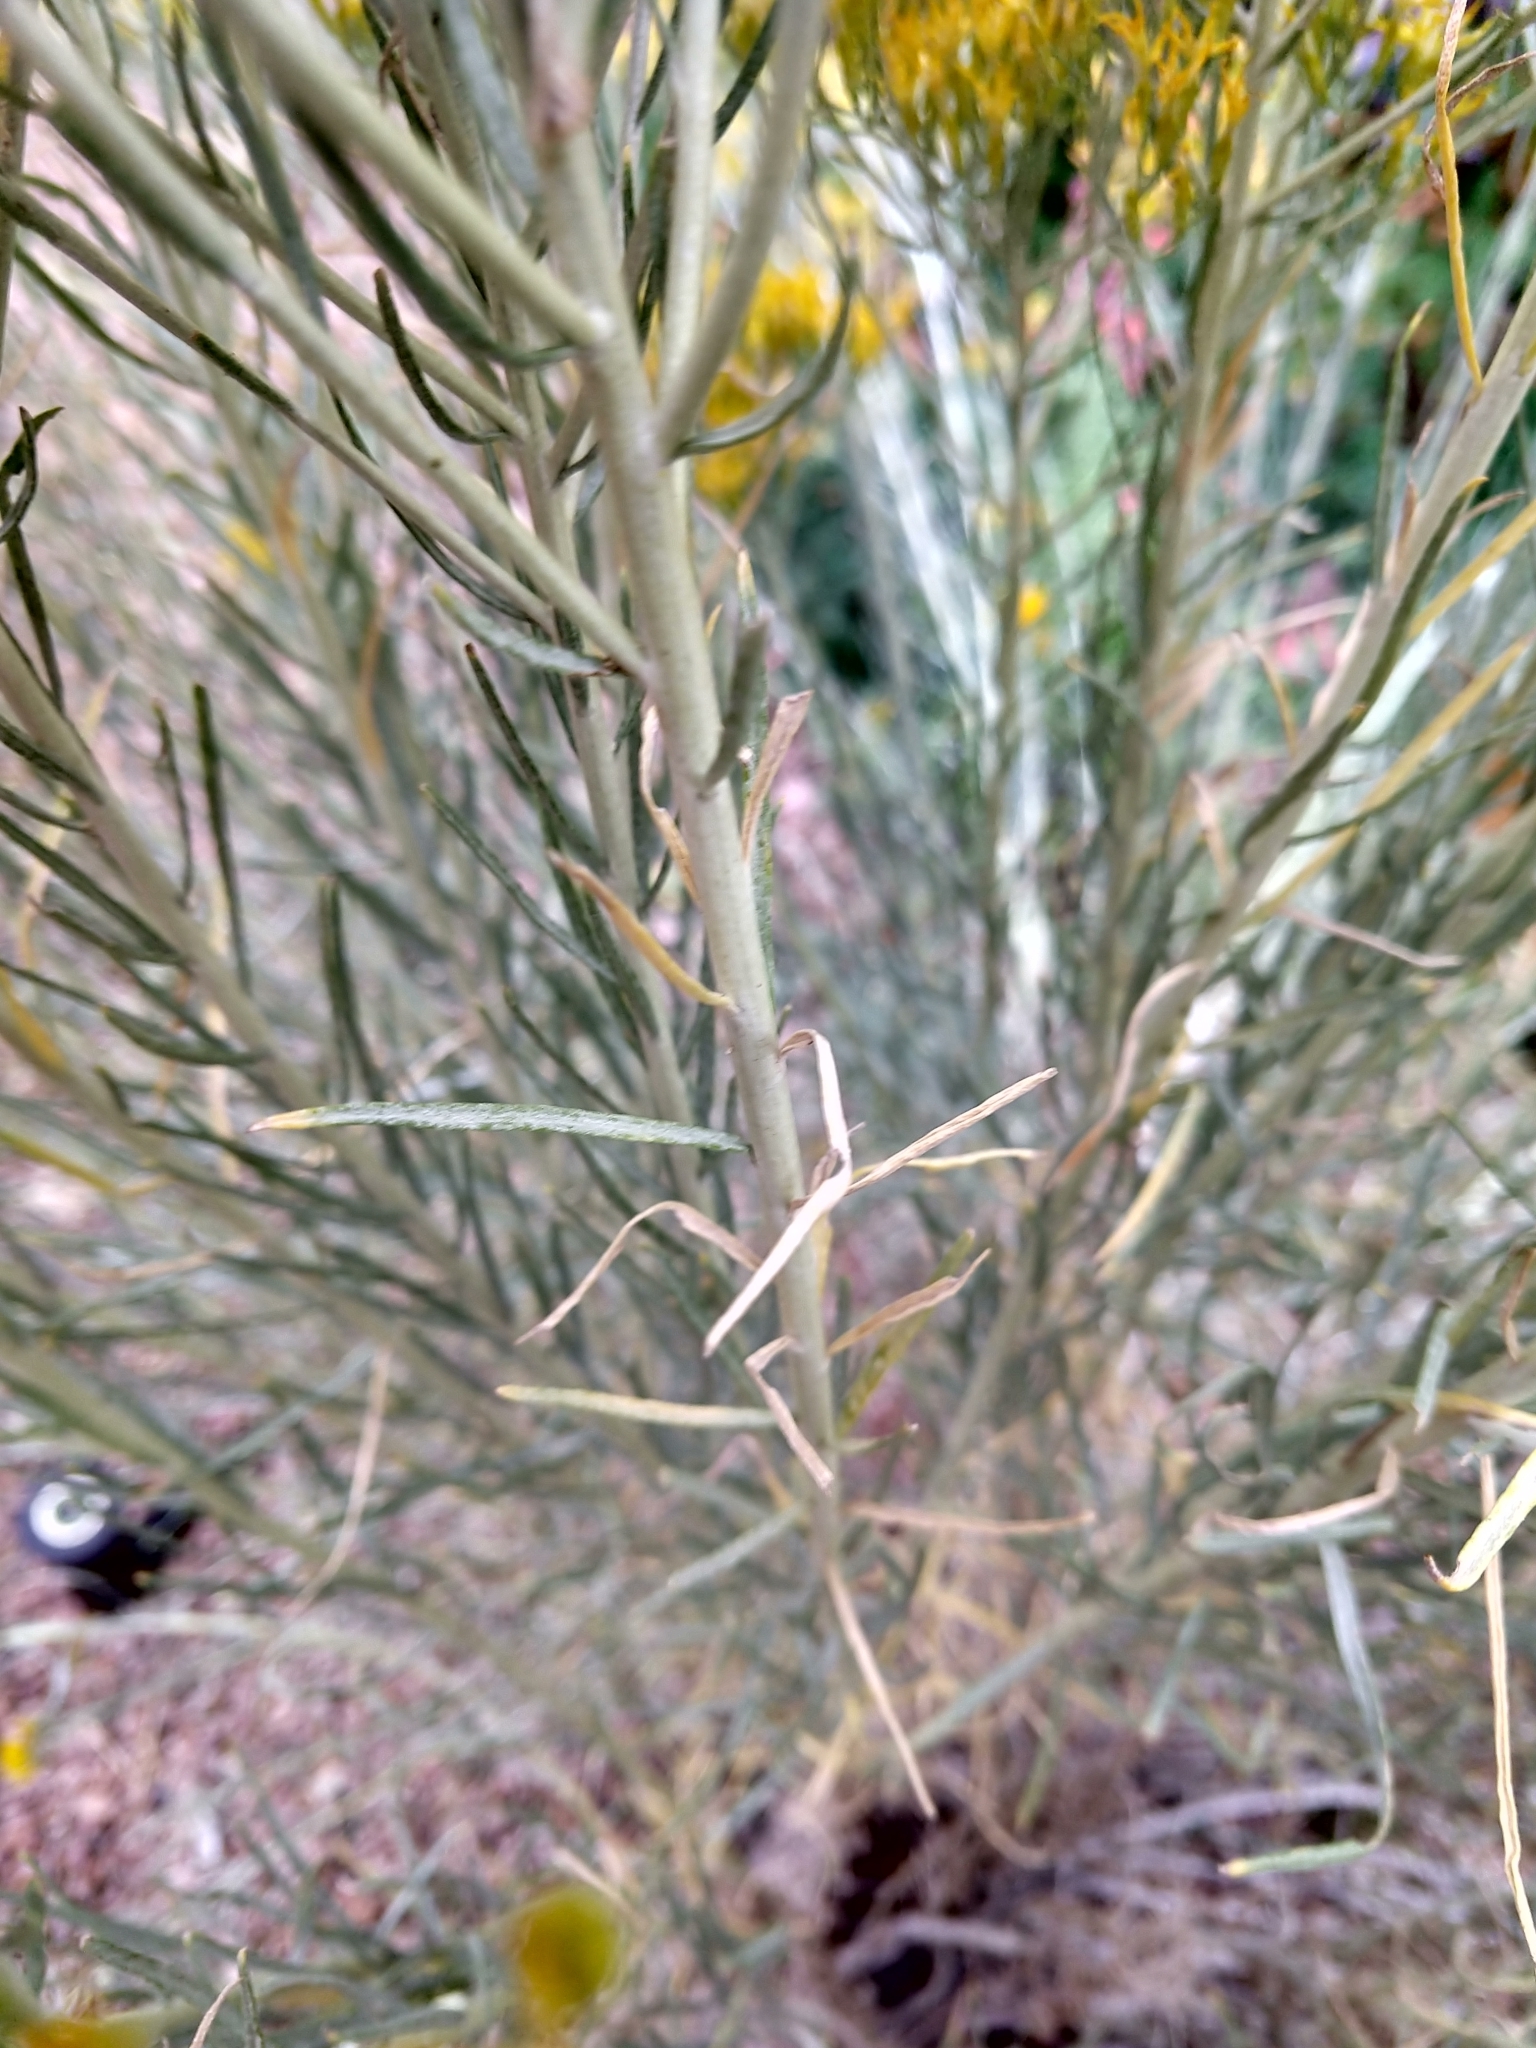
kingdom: Plantae
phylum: Tracheophyta
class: Magnoliopsida
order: Asterales
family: Asteraceae
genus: Ericameria
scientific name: Ericameria nauseosa
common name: Rubber rabbitbrush
